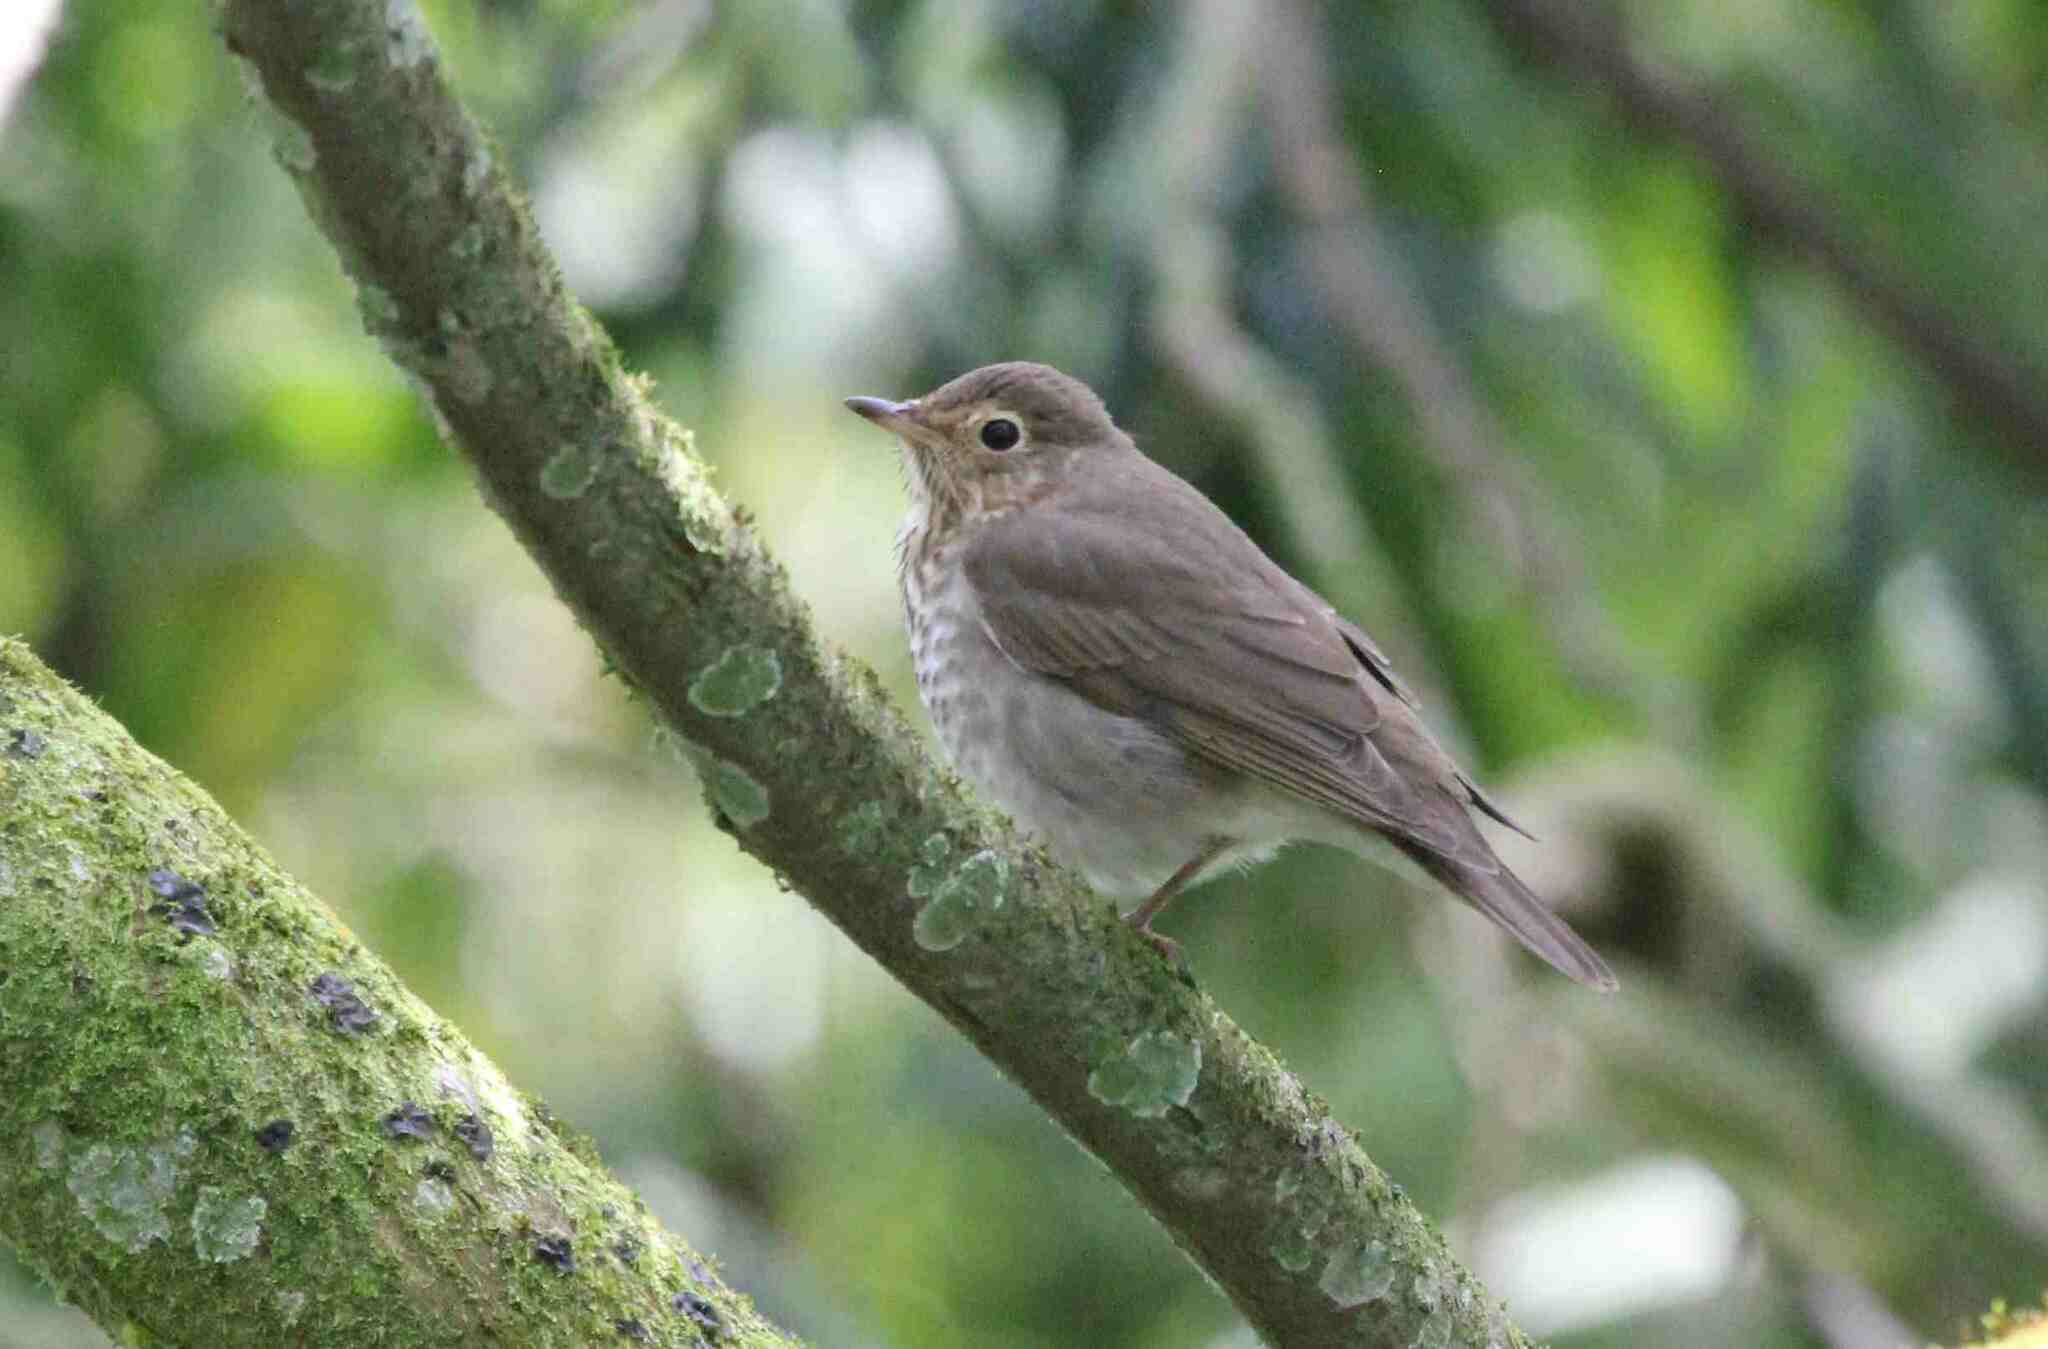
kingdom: Animalia
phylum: Chordata
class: Aves
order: Passeriformes
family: Turdidae
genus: Catharus
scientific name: Catharus ustulatus
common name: Swainson's thrush
